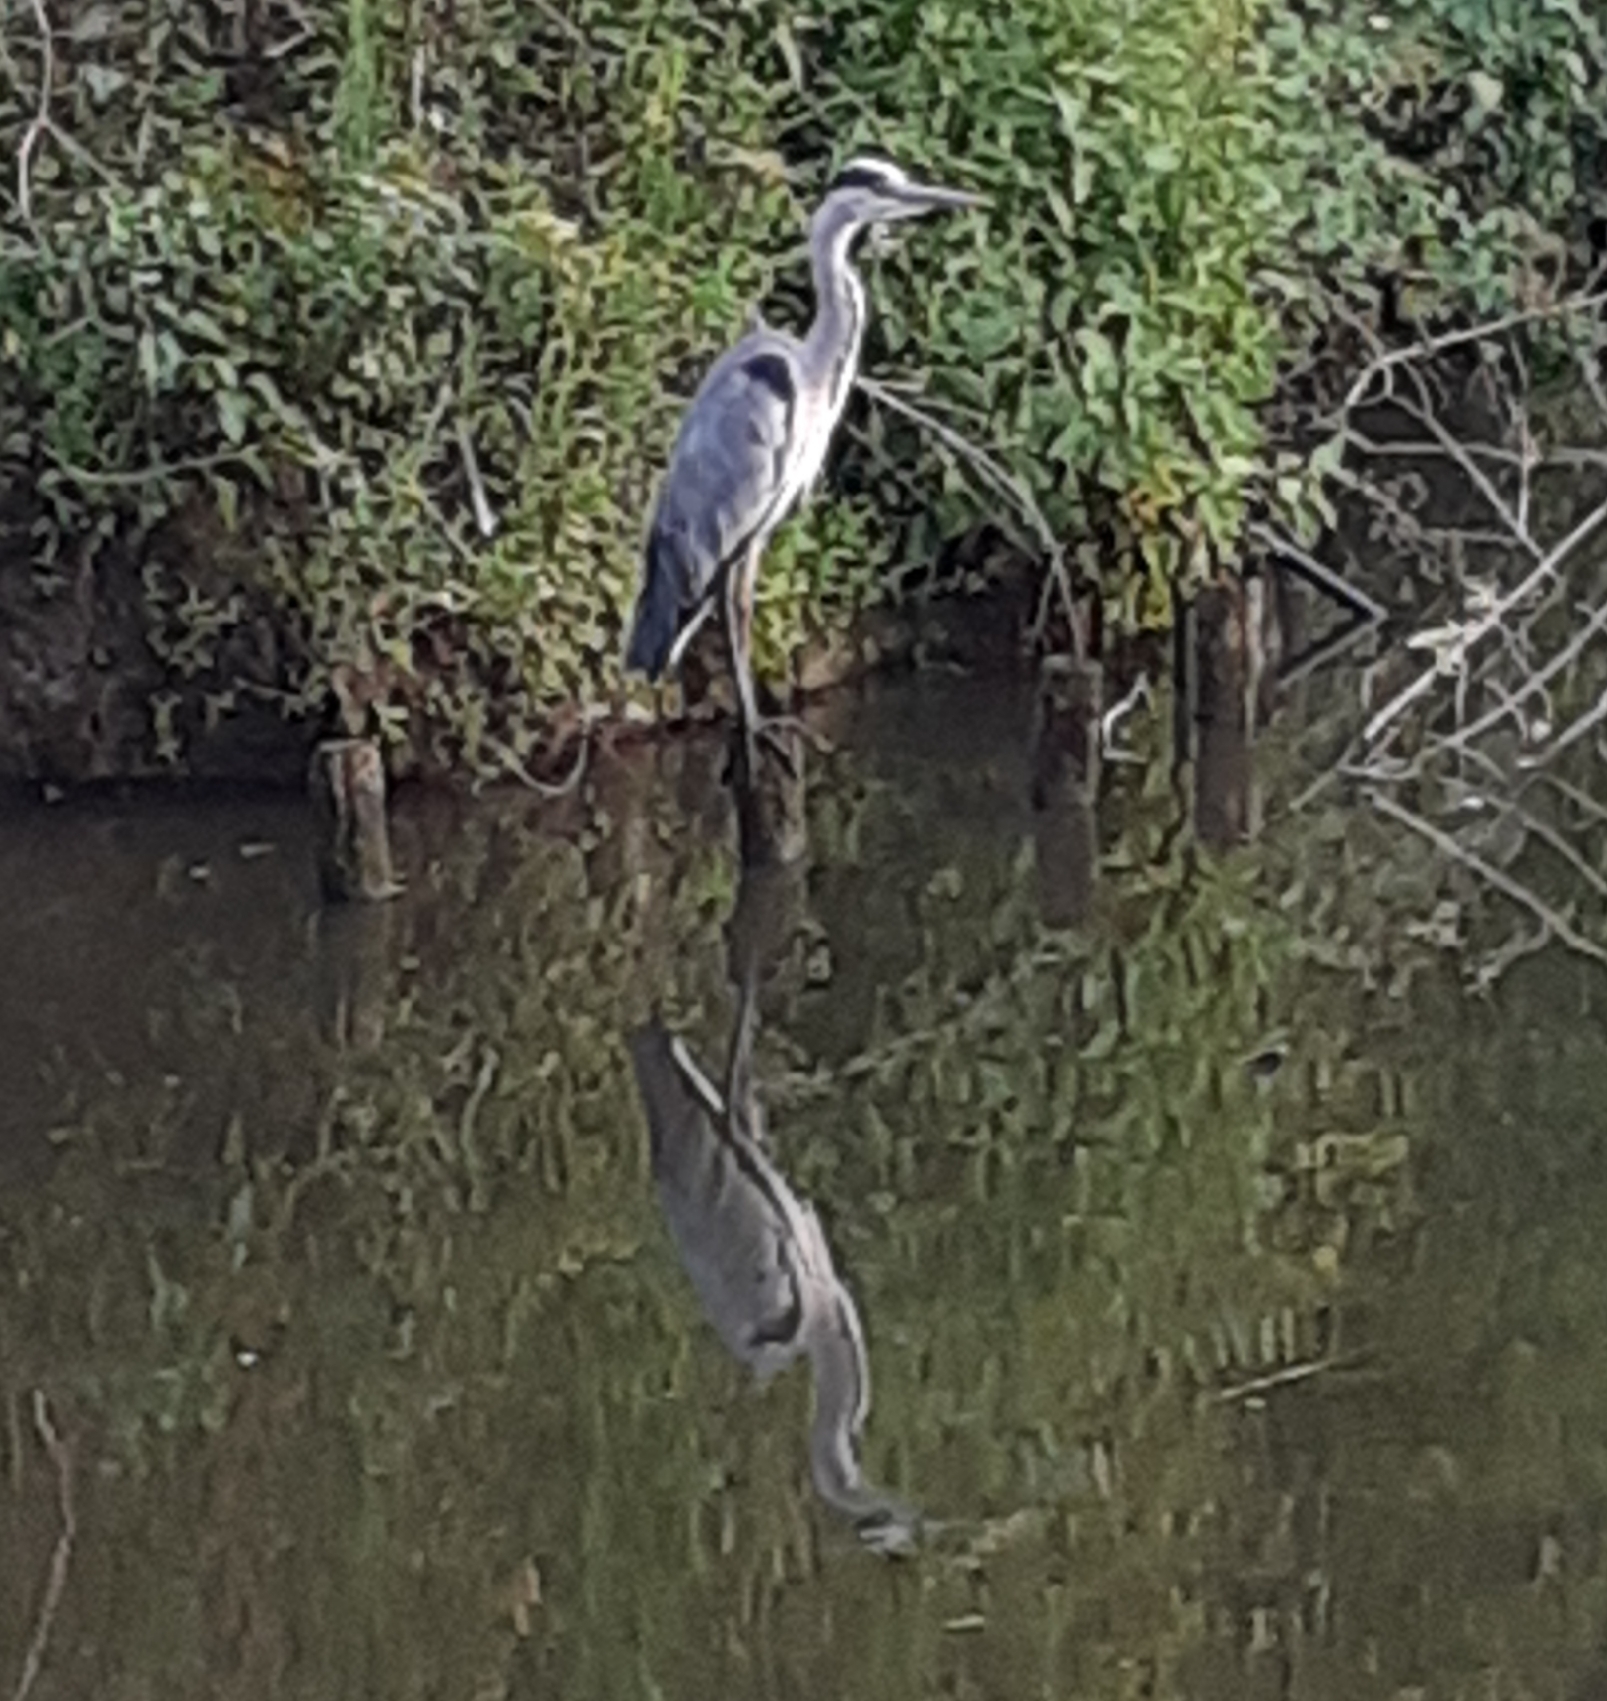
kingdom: Animalia
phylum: Chordata
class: Aves
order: Pelecaniformes
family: Ardeidae
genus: Ardea
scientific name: Ardea cinerea
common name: Grey heron
